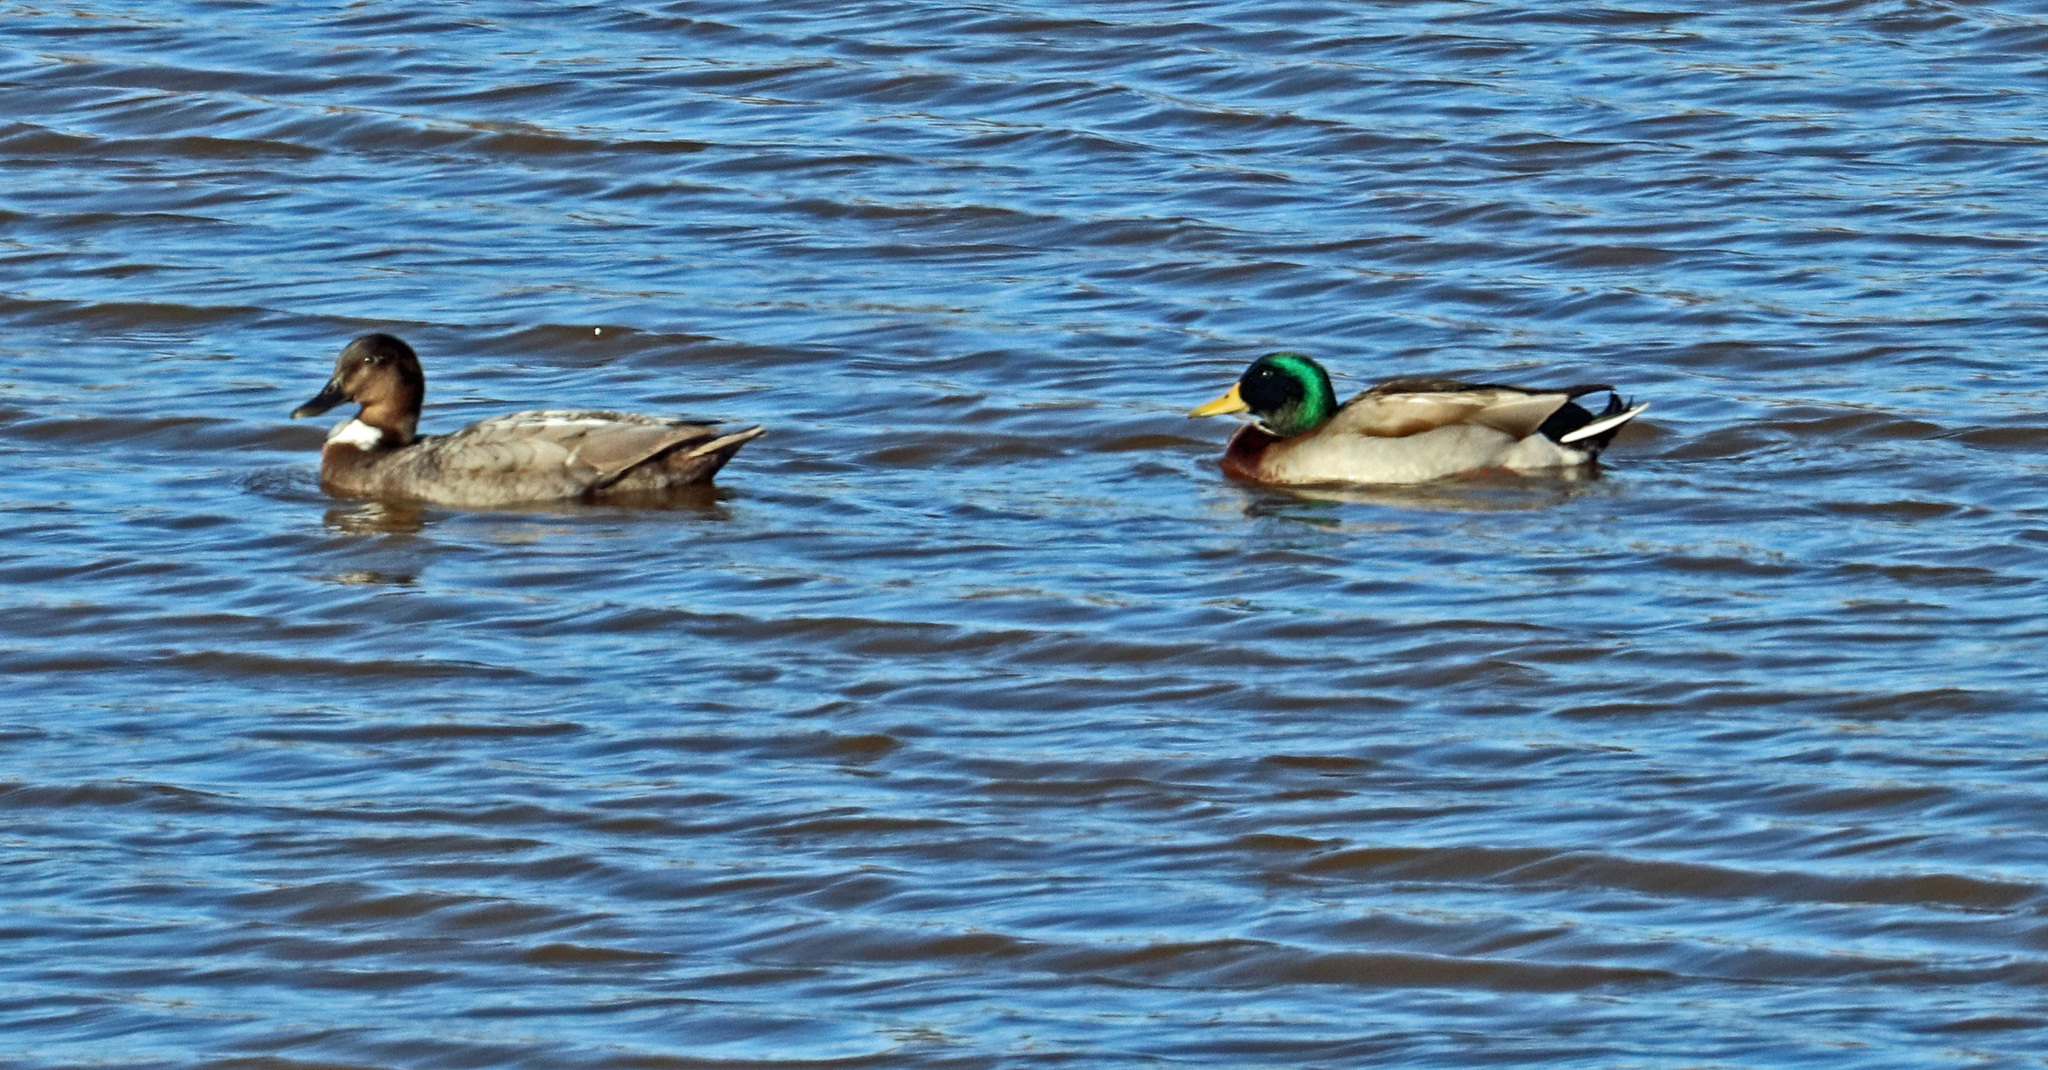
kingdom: Animalia
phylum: Chordata
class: Aves
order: Anseriformes
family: Anatidae
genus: Anas
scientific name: Anas platyrhynchos
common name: Mallard
